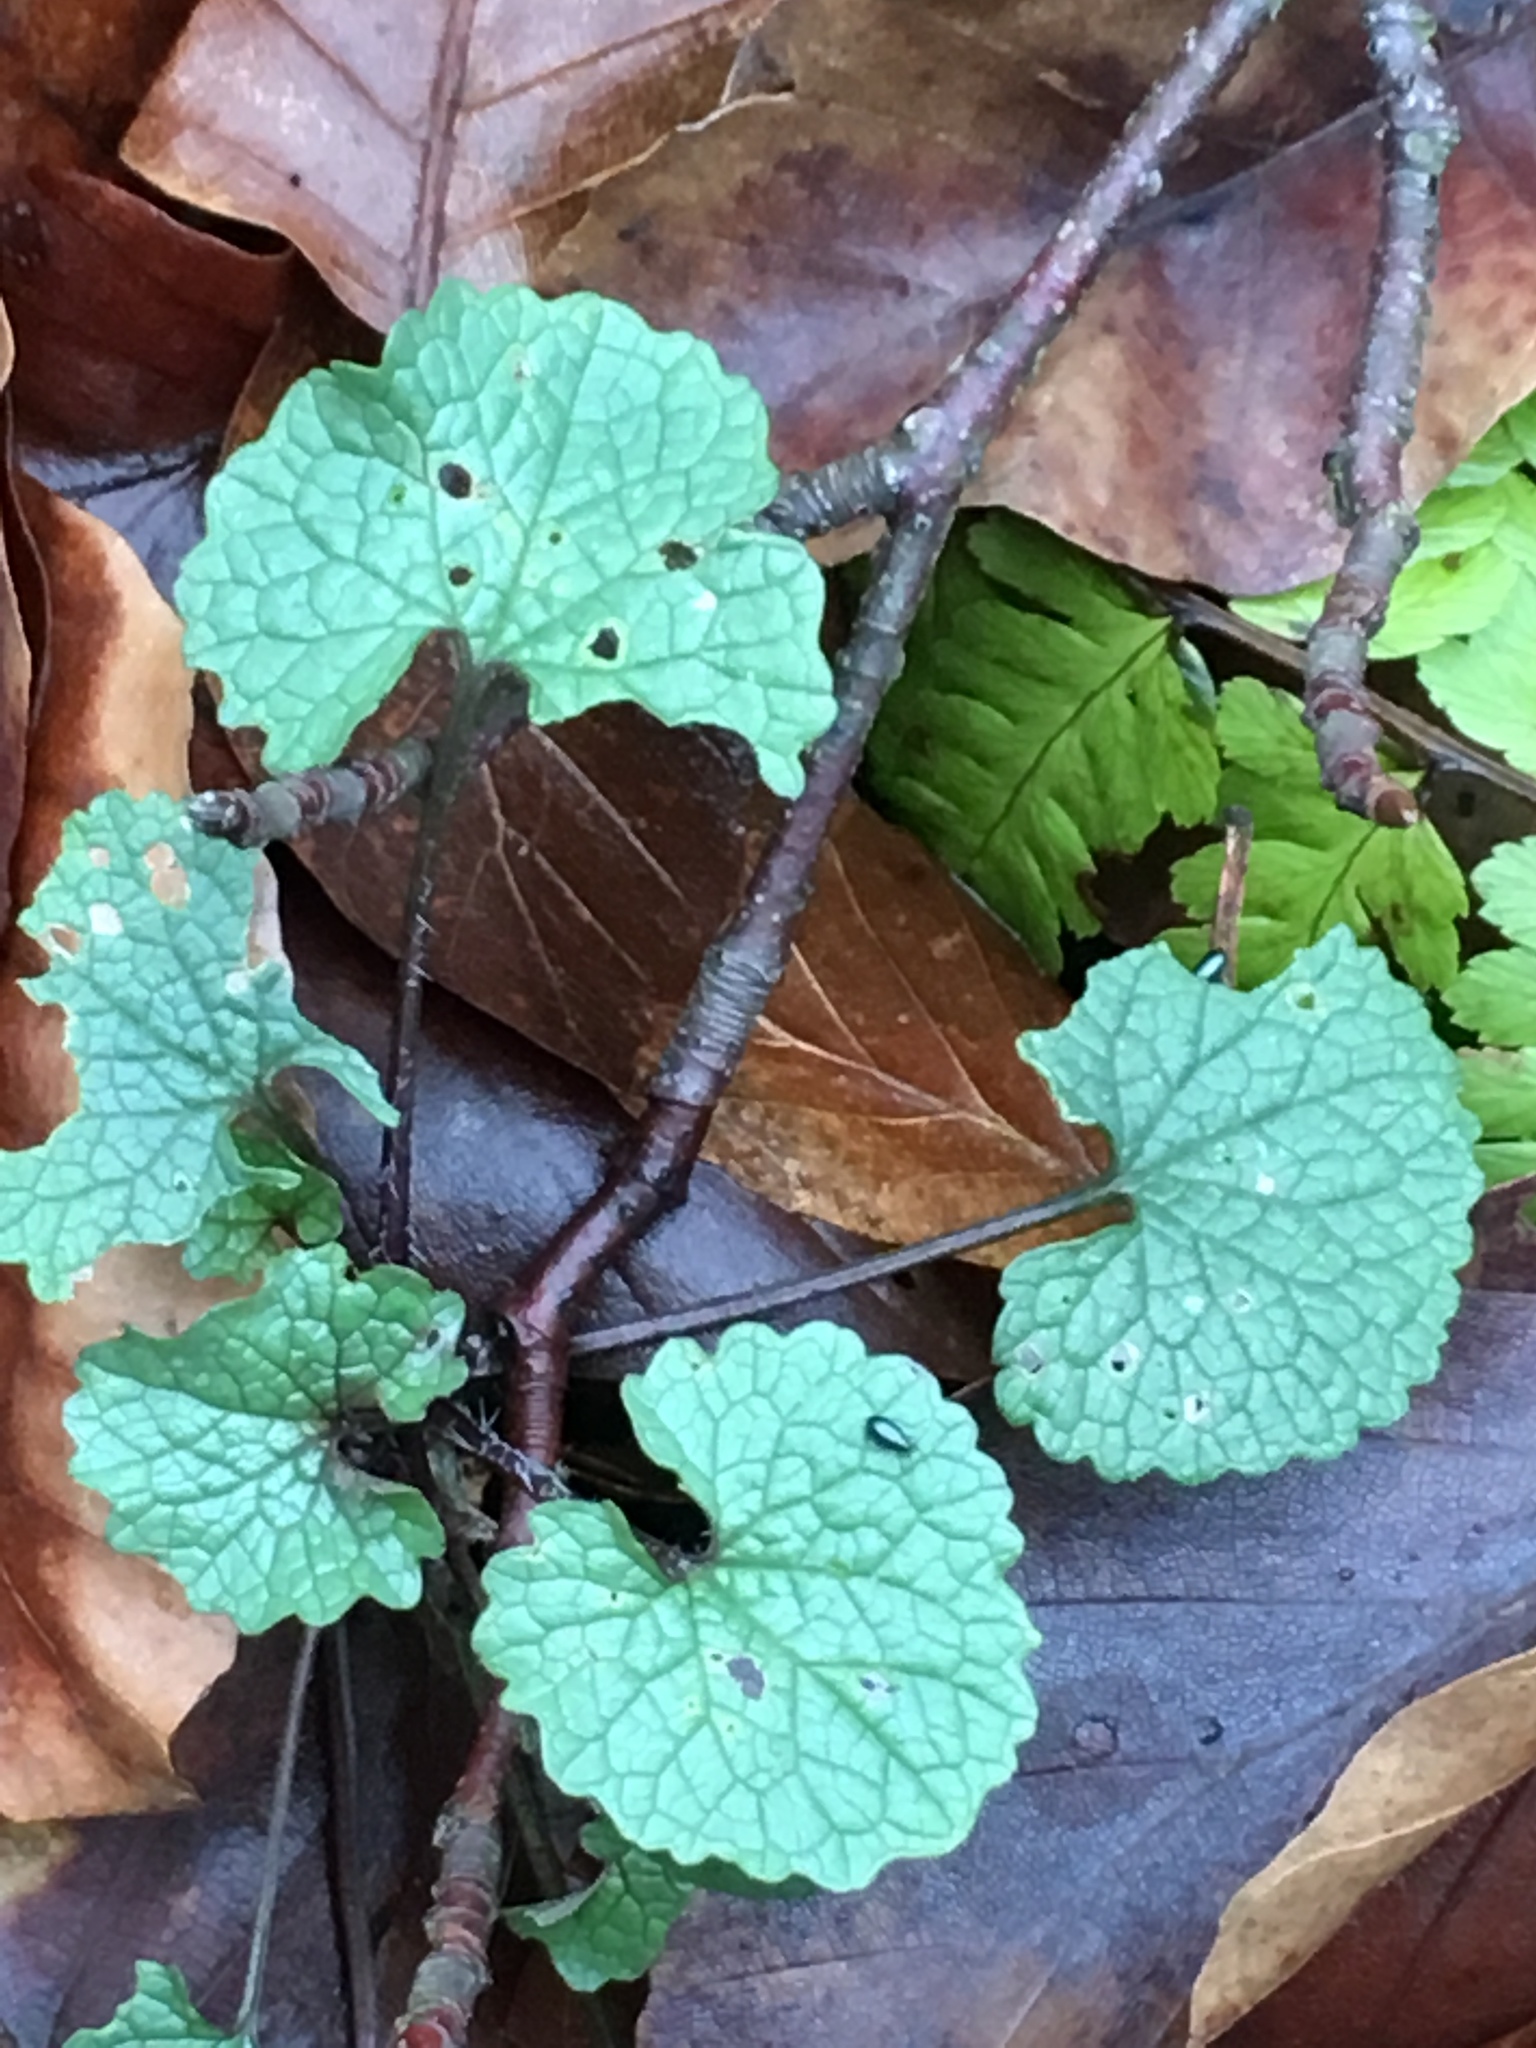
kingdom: Plantae
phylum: Tracheophyta
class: Magnoliopsida
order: Brassicales
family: Brassicaceae
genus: Alliaria
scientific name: Alliaria petiolata
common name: Garlic mustard
